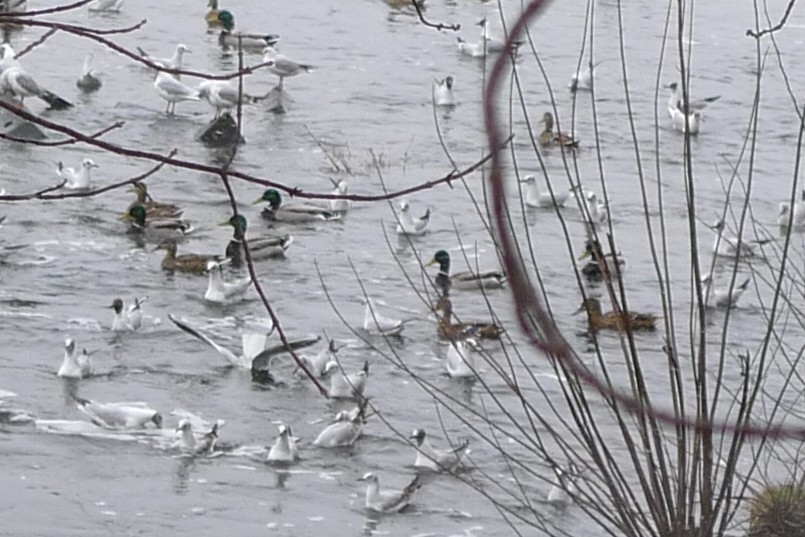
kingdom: Animalia
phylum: Chordata
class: Aves
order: Anseriformes
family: Anatidae
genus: Anas
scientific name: Anas platyrhynchos
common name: Mallard
